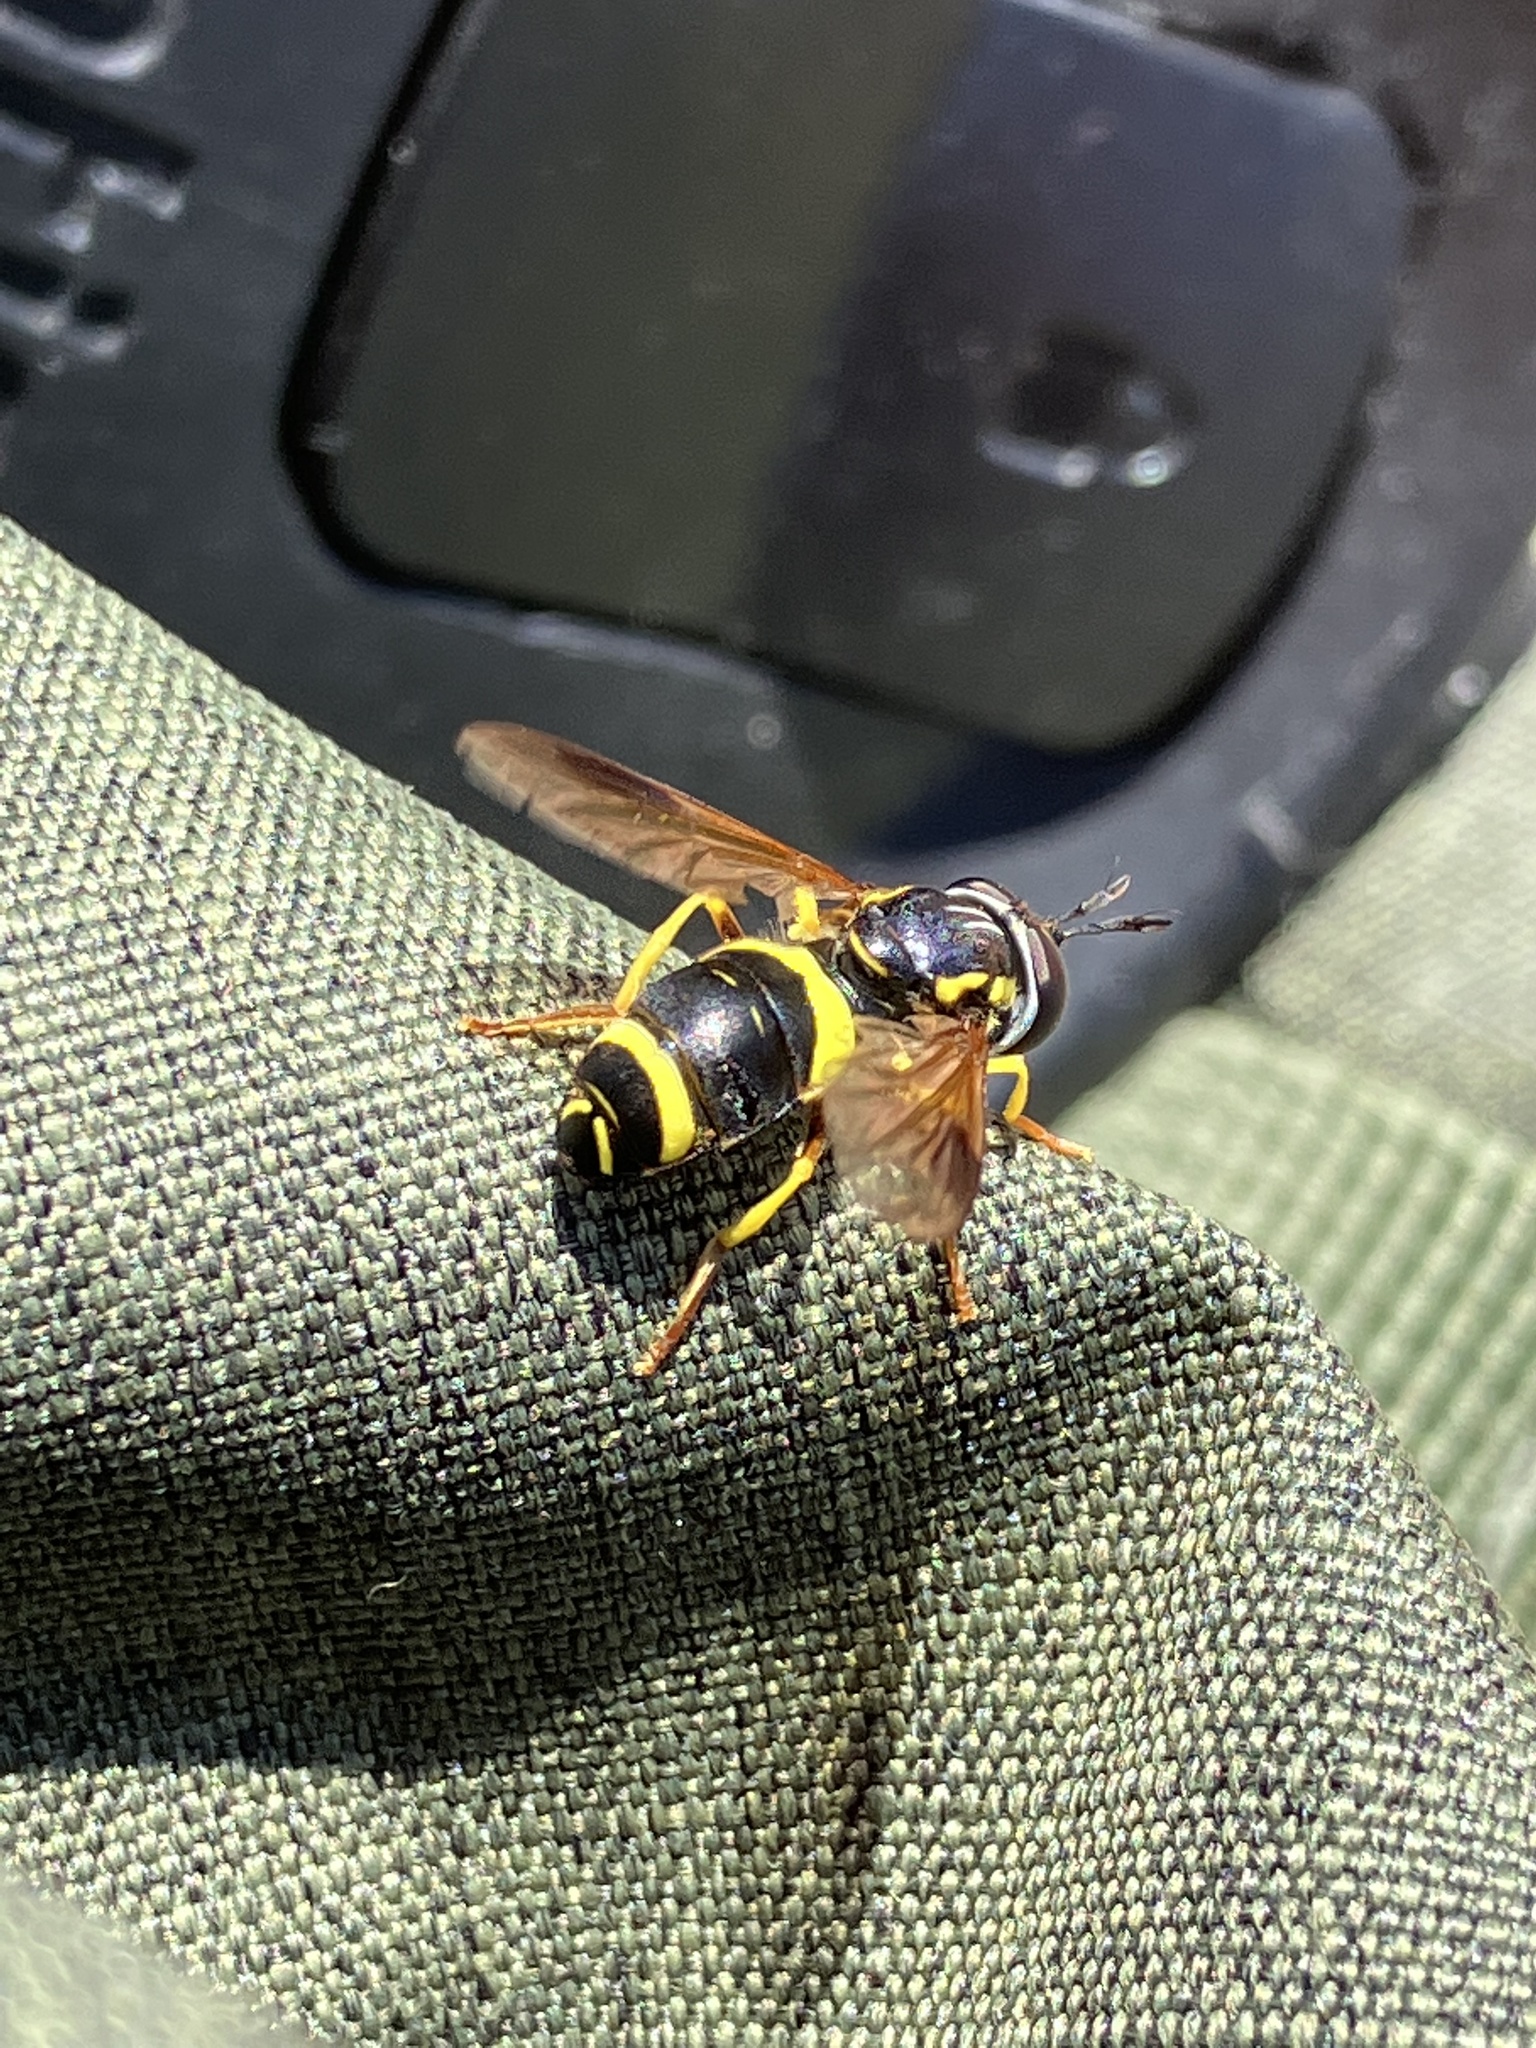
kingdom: Animalia
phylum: Arthropoda
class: Insecta
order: Diptera
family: Syrphidae
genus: Chrysotoxum
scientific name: Chrysotoxum bicincta
